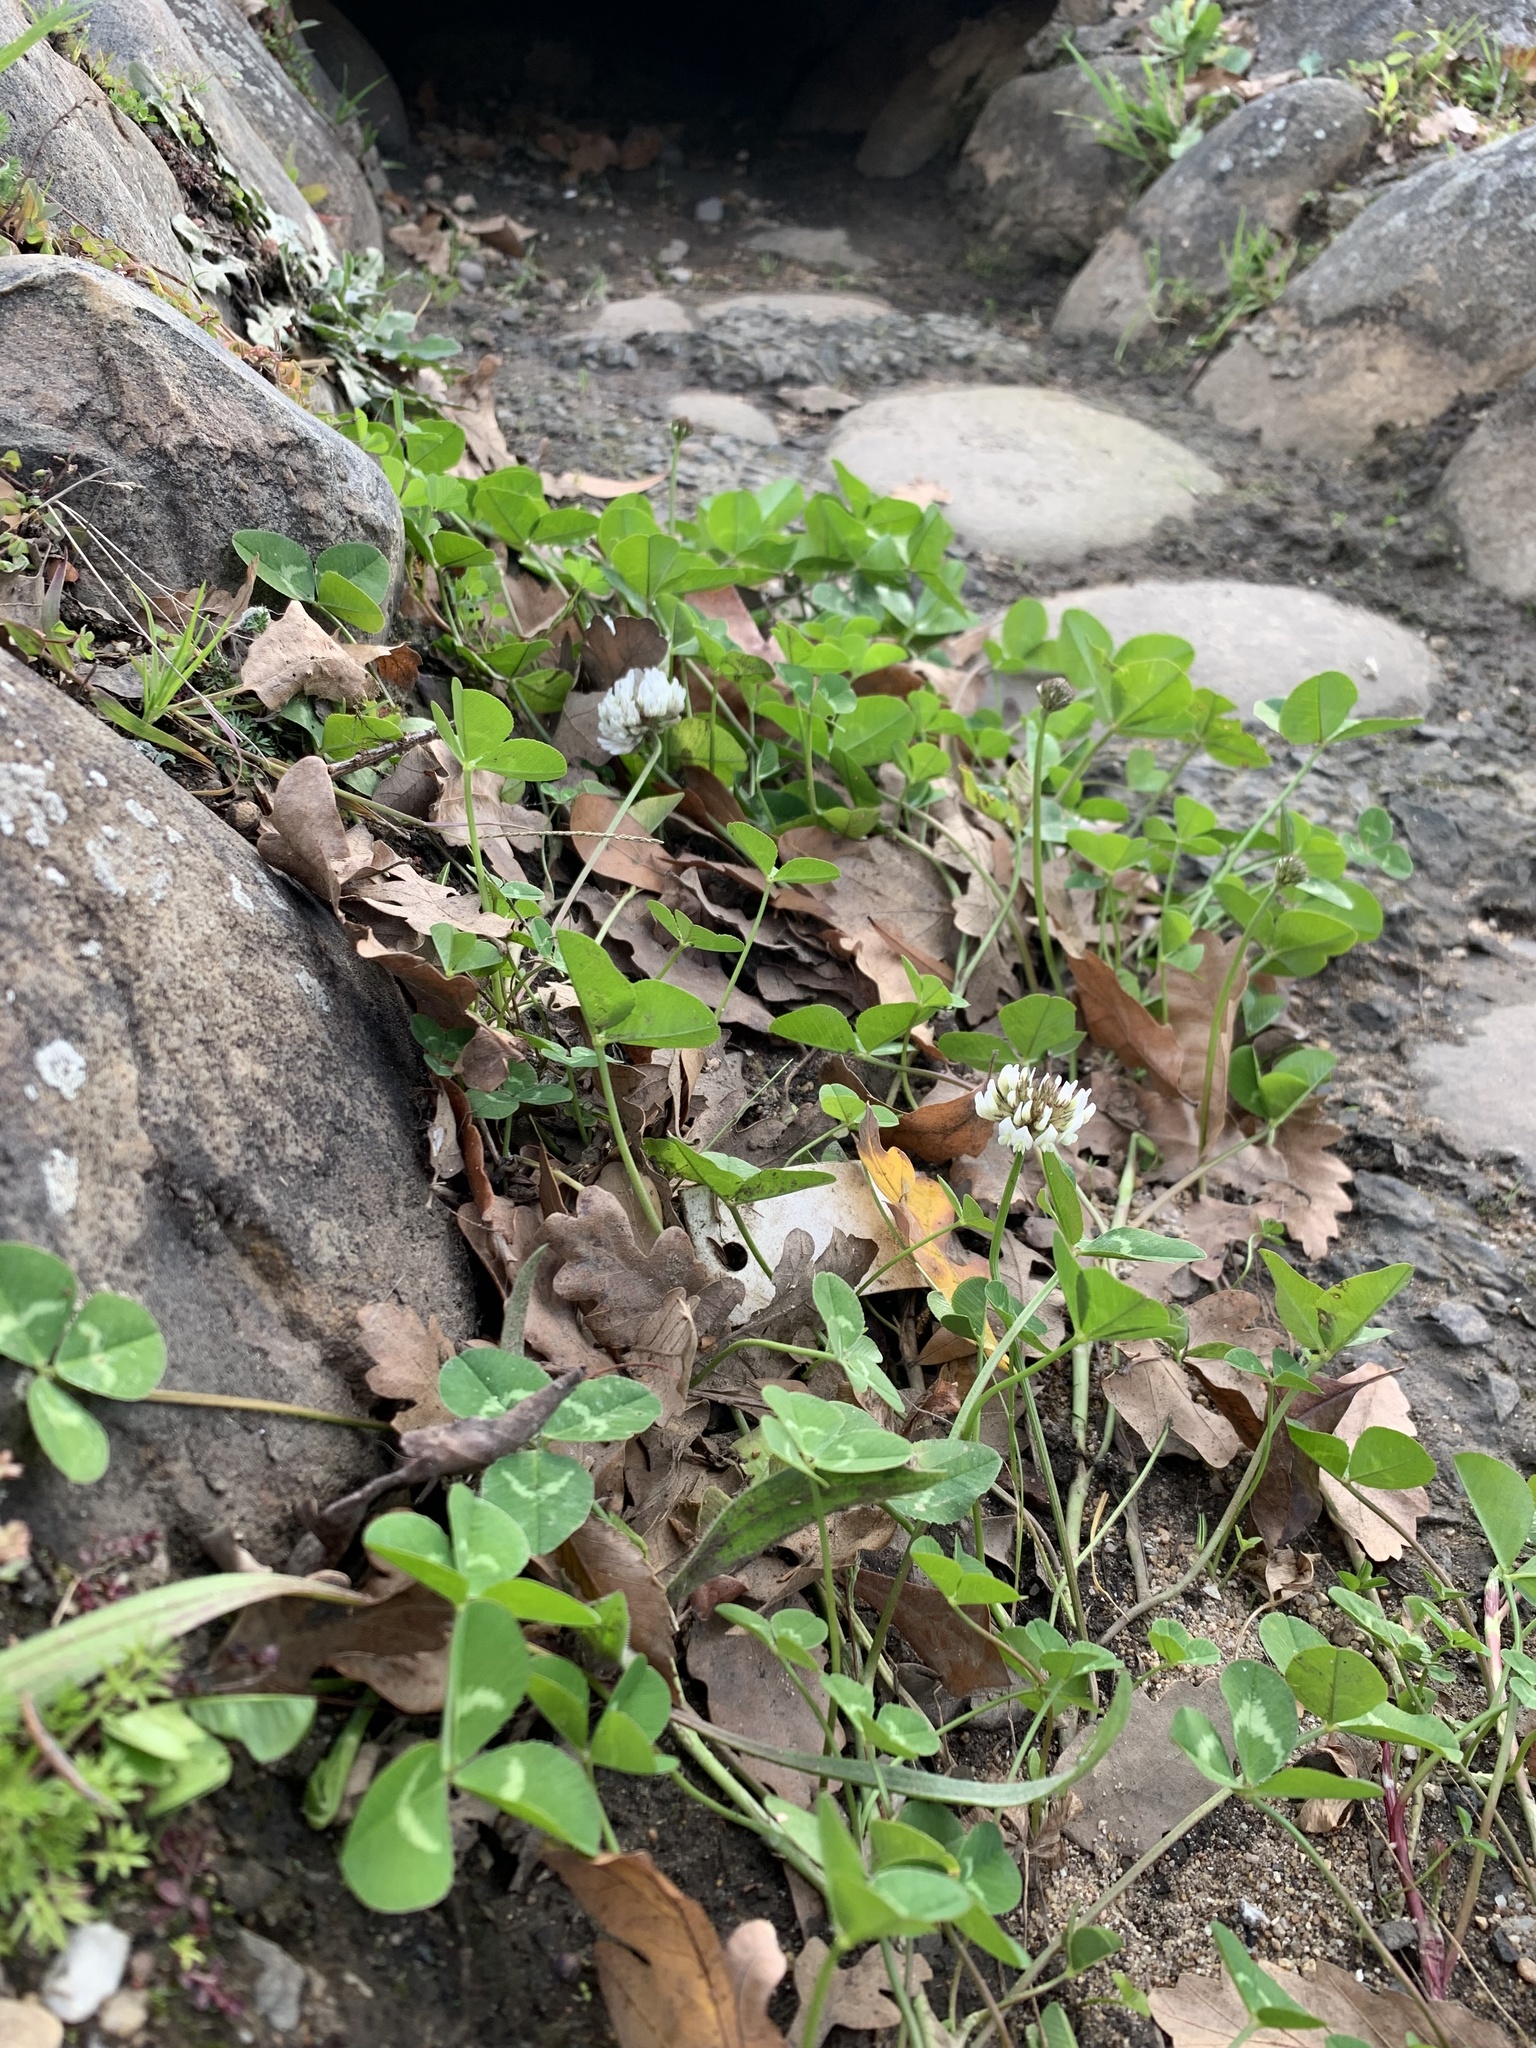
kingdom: Plantae
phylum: Tracheophyta
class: Magnoliopsida
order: Fabales
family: Fabaceae
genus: Trifolium
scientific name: Trifolium repens
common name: White clover
